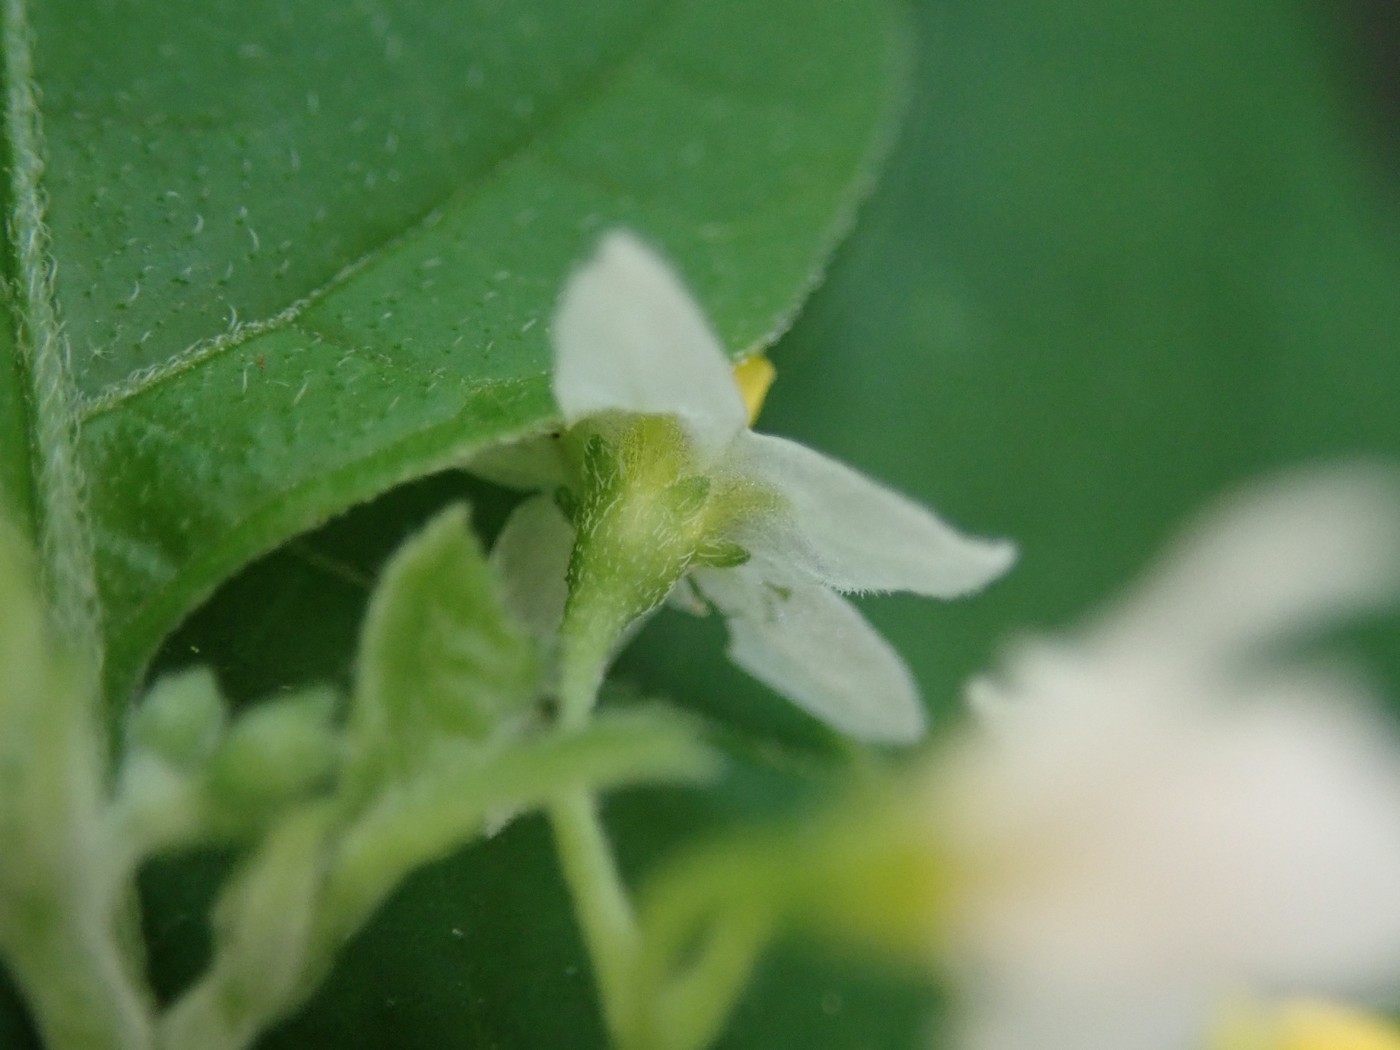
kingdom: Plantae
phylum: Tracheophyta
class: Magnoliopsida
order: Solanales
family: Solanaceae
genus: Solanum
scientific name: Solanum emulans
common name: Eastern black nightshade
